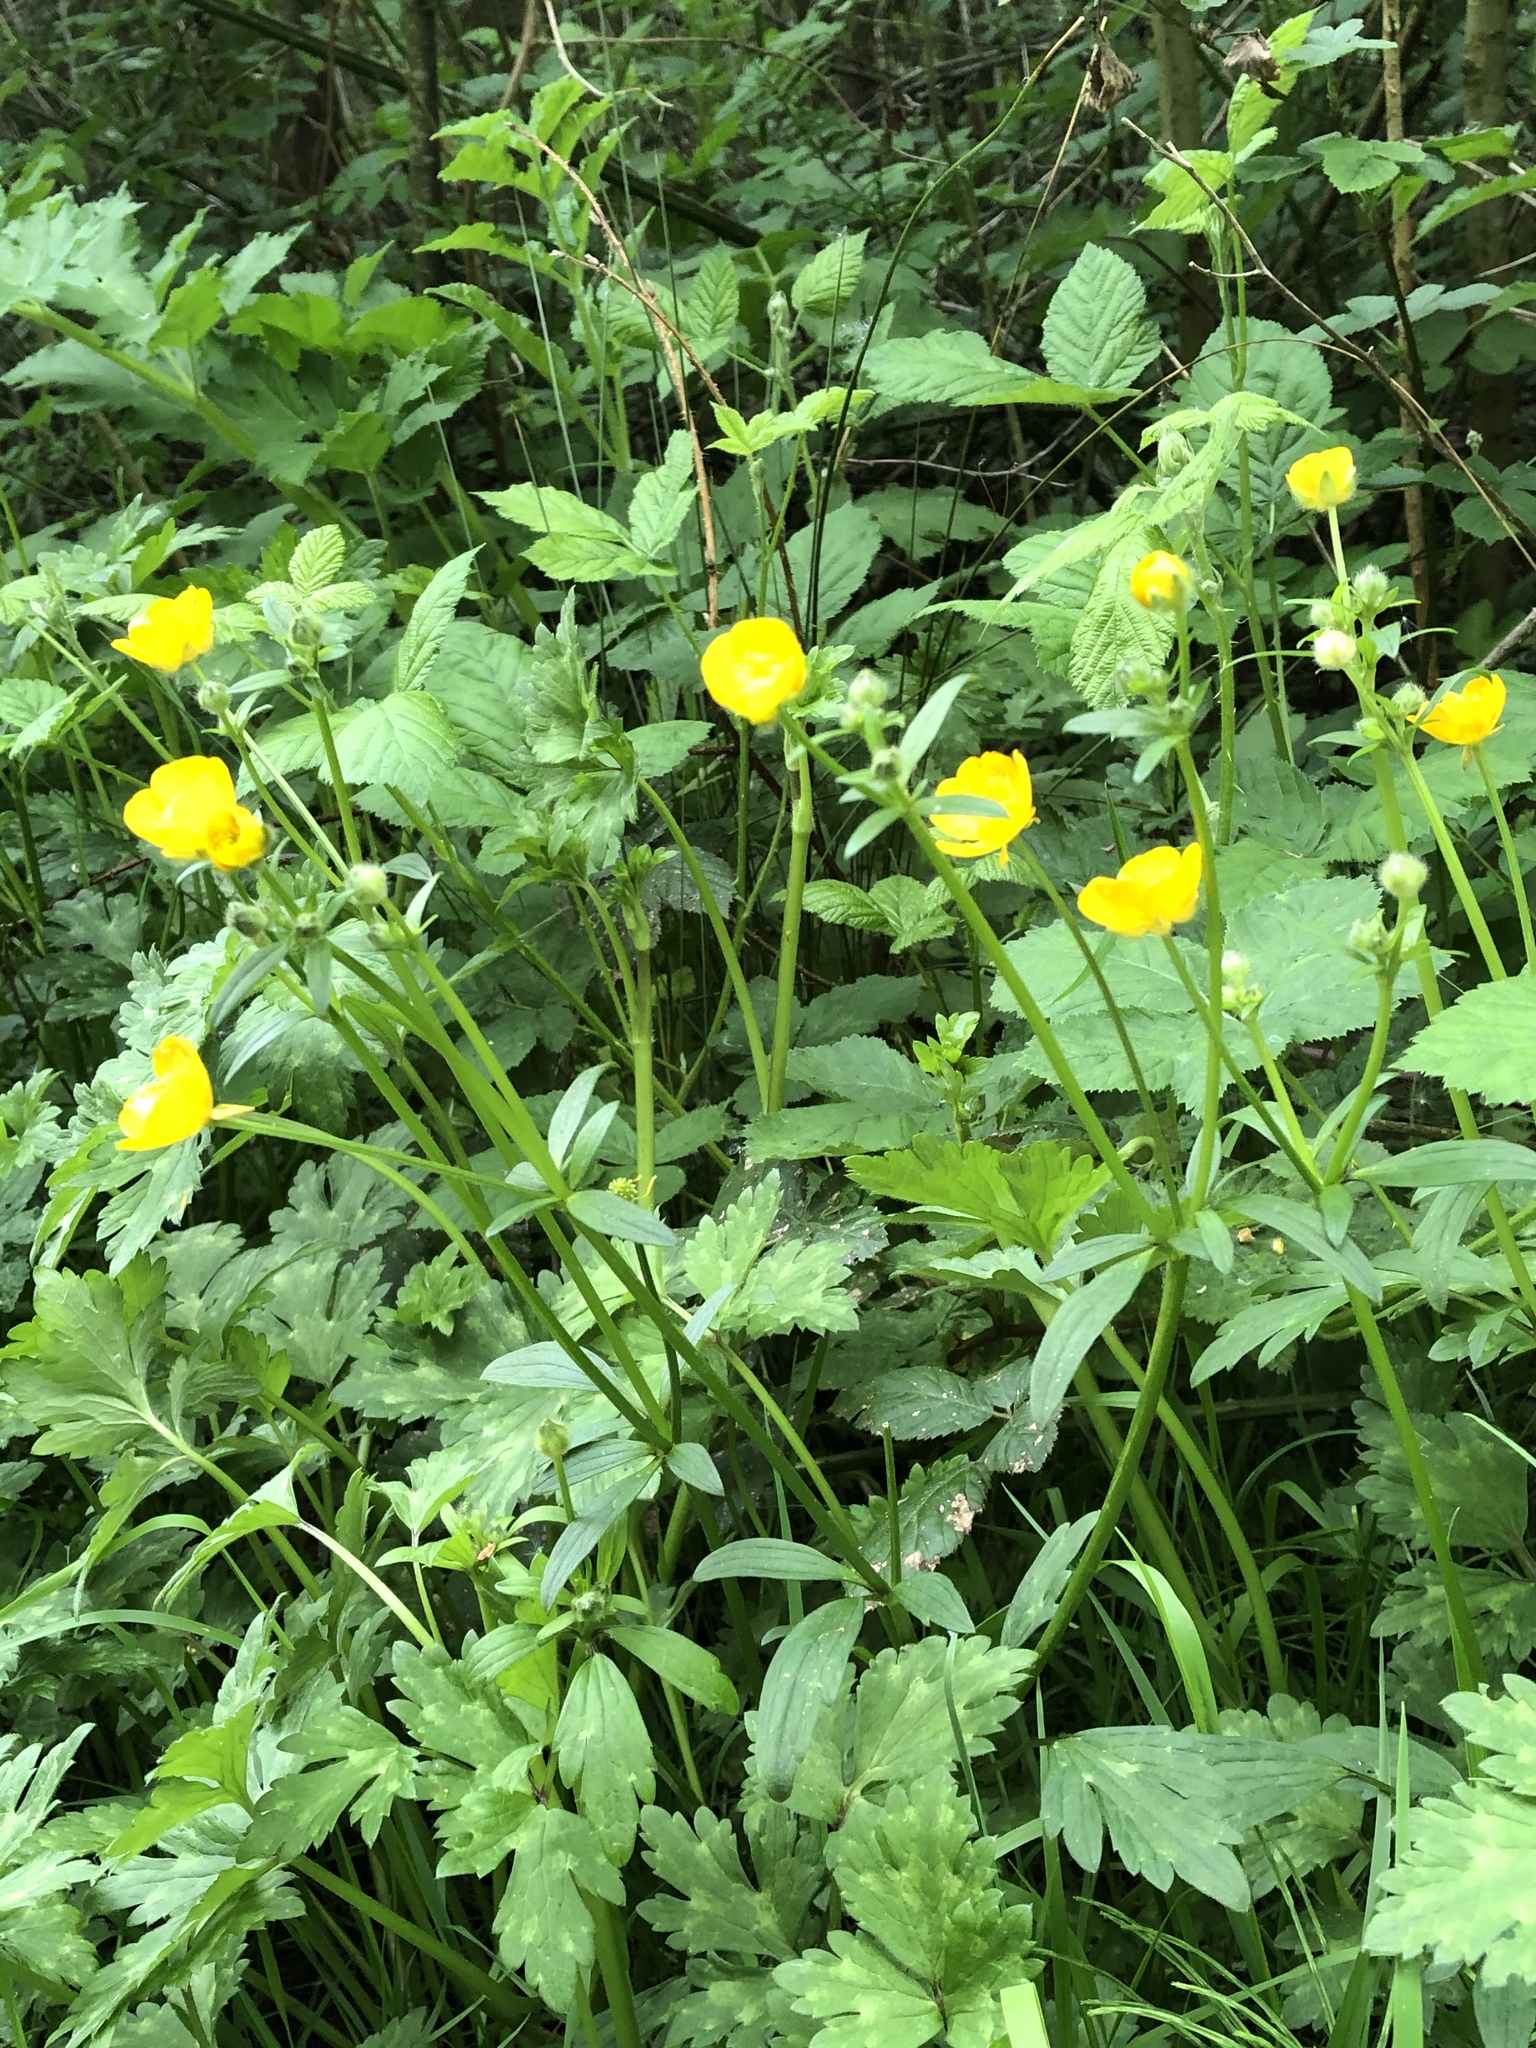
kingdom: Plantae
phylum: Tracheophyta
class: Magnoliopsida
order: Ranunculales
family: Ranunculaceae
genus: Ranunculus
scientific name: Ranunculus repens
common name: Creeping buttercup
